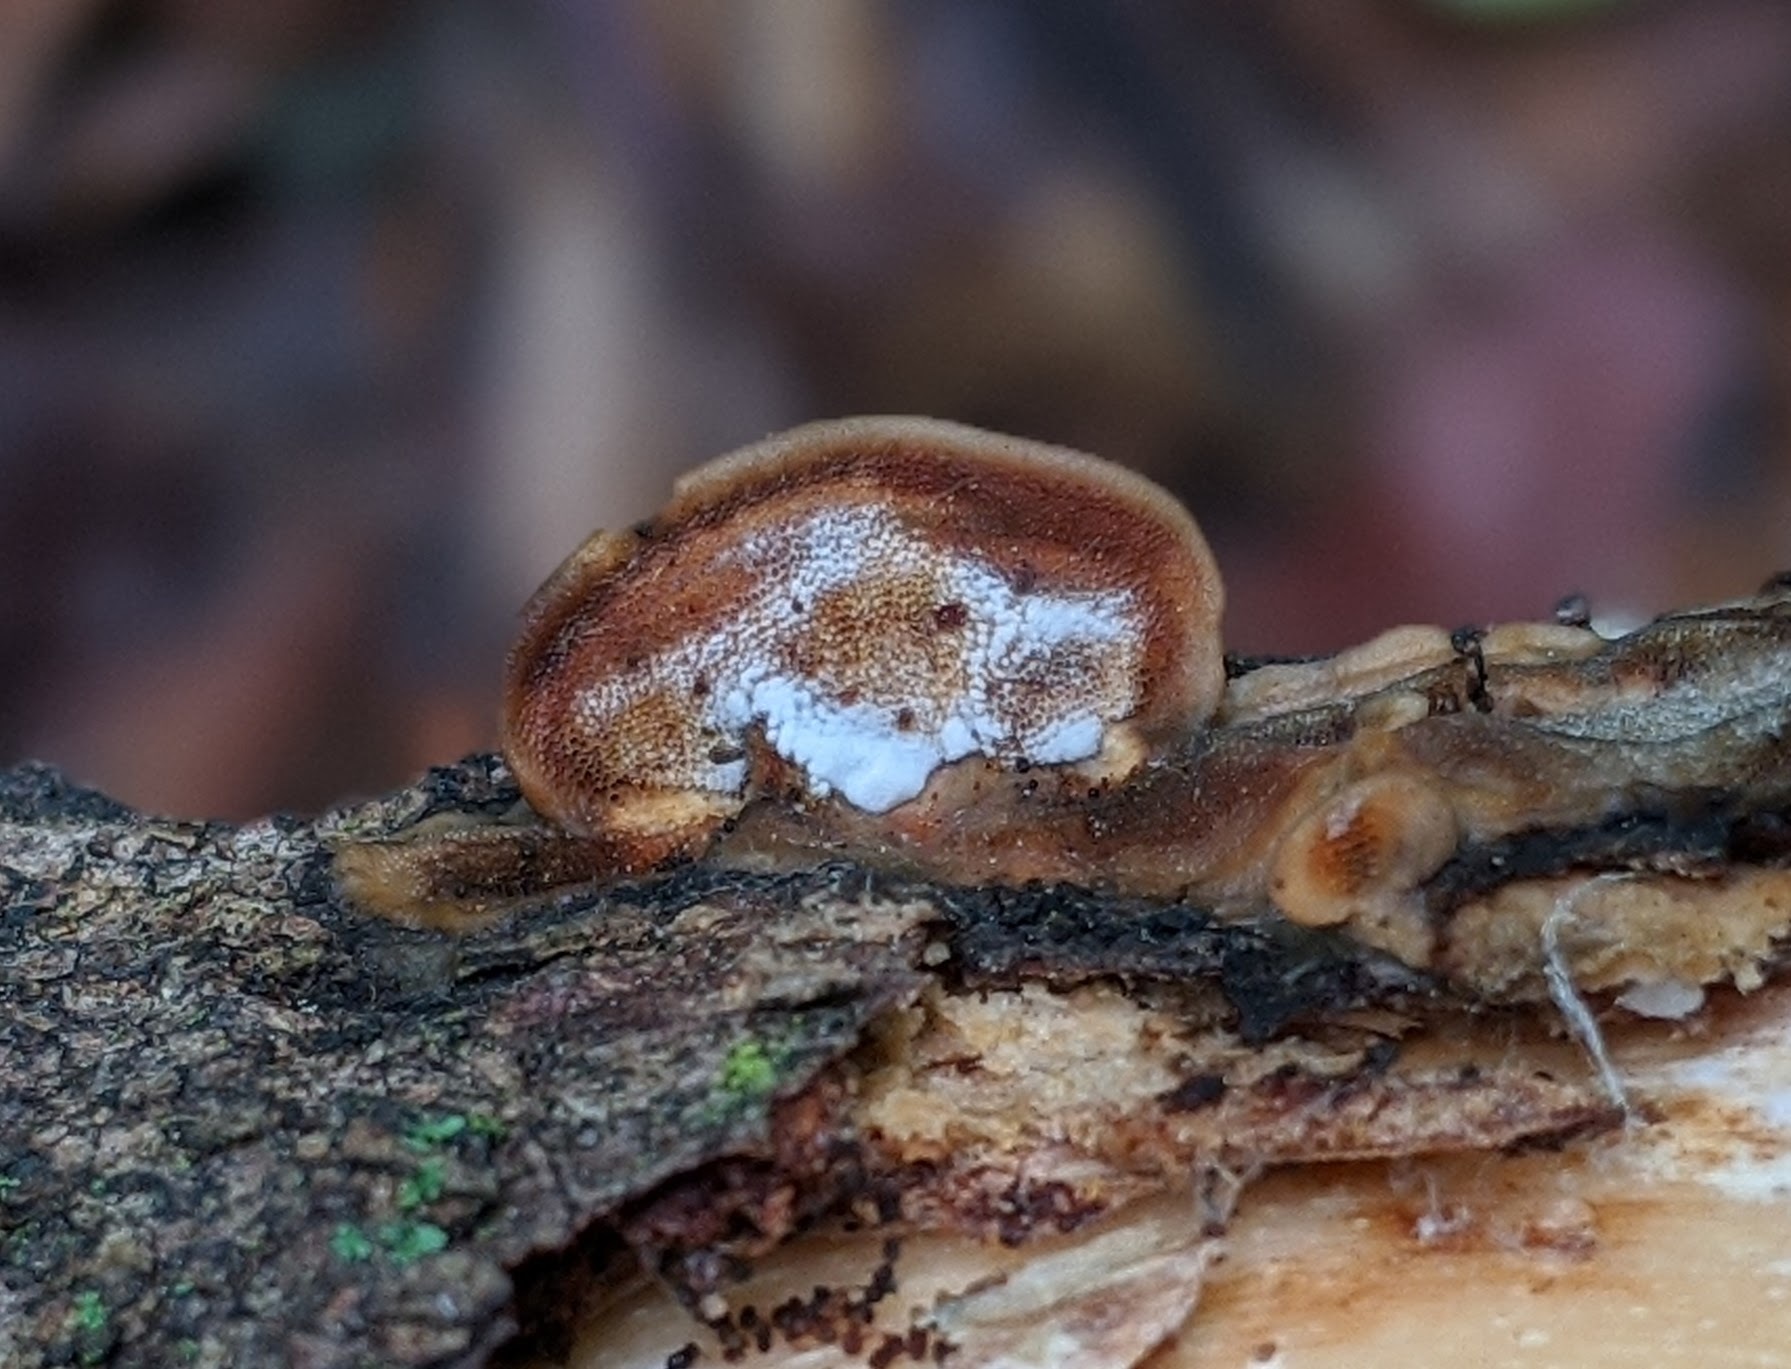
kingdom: Fungi
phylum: Basidiomycota
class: Agaricomycetes
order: Polyporales
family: Steccherinaceae
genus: Metuloidea
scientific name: Metuloidea fragrans
